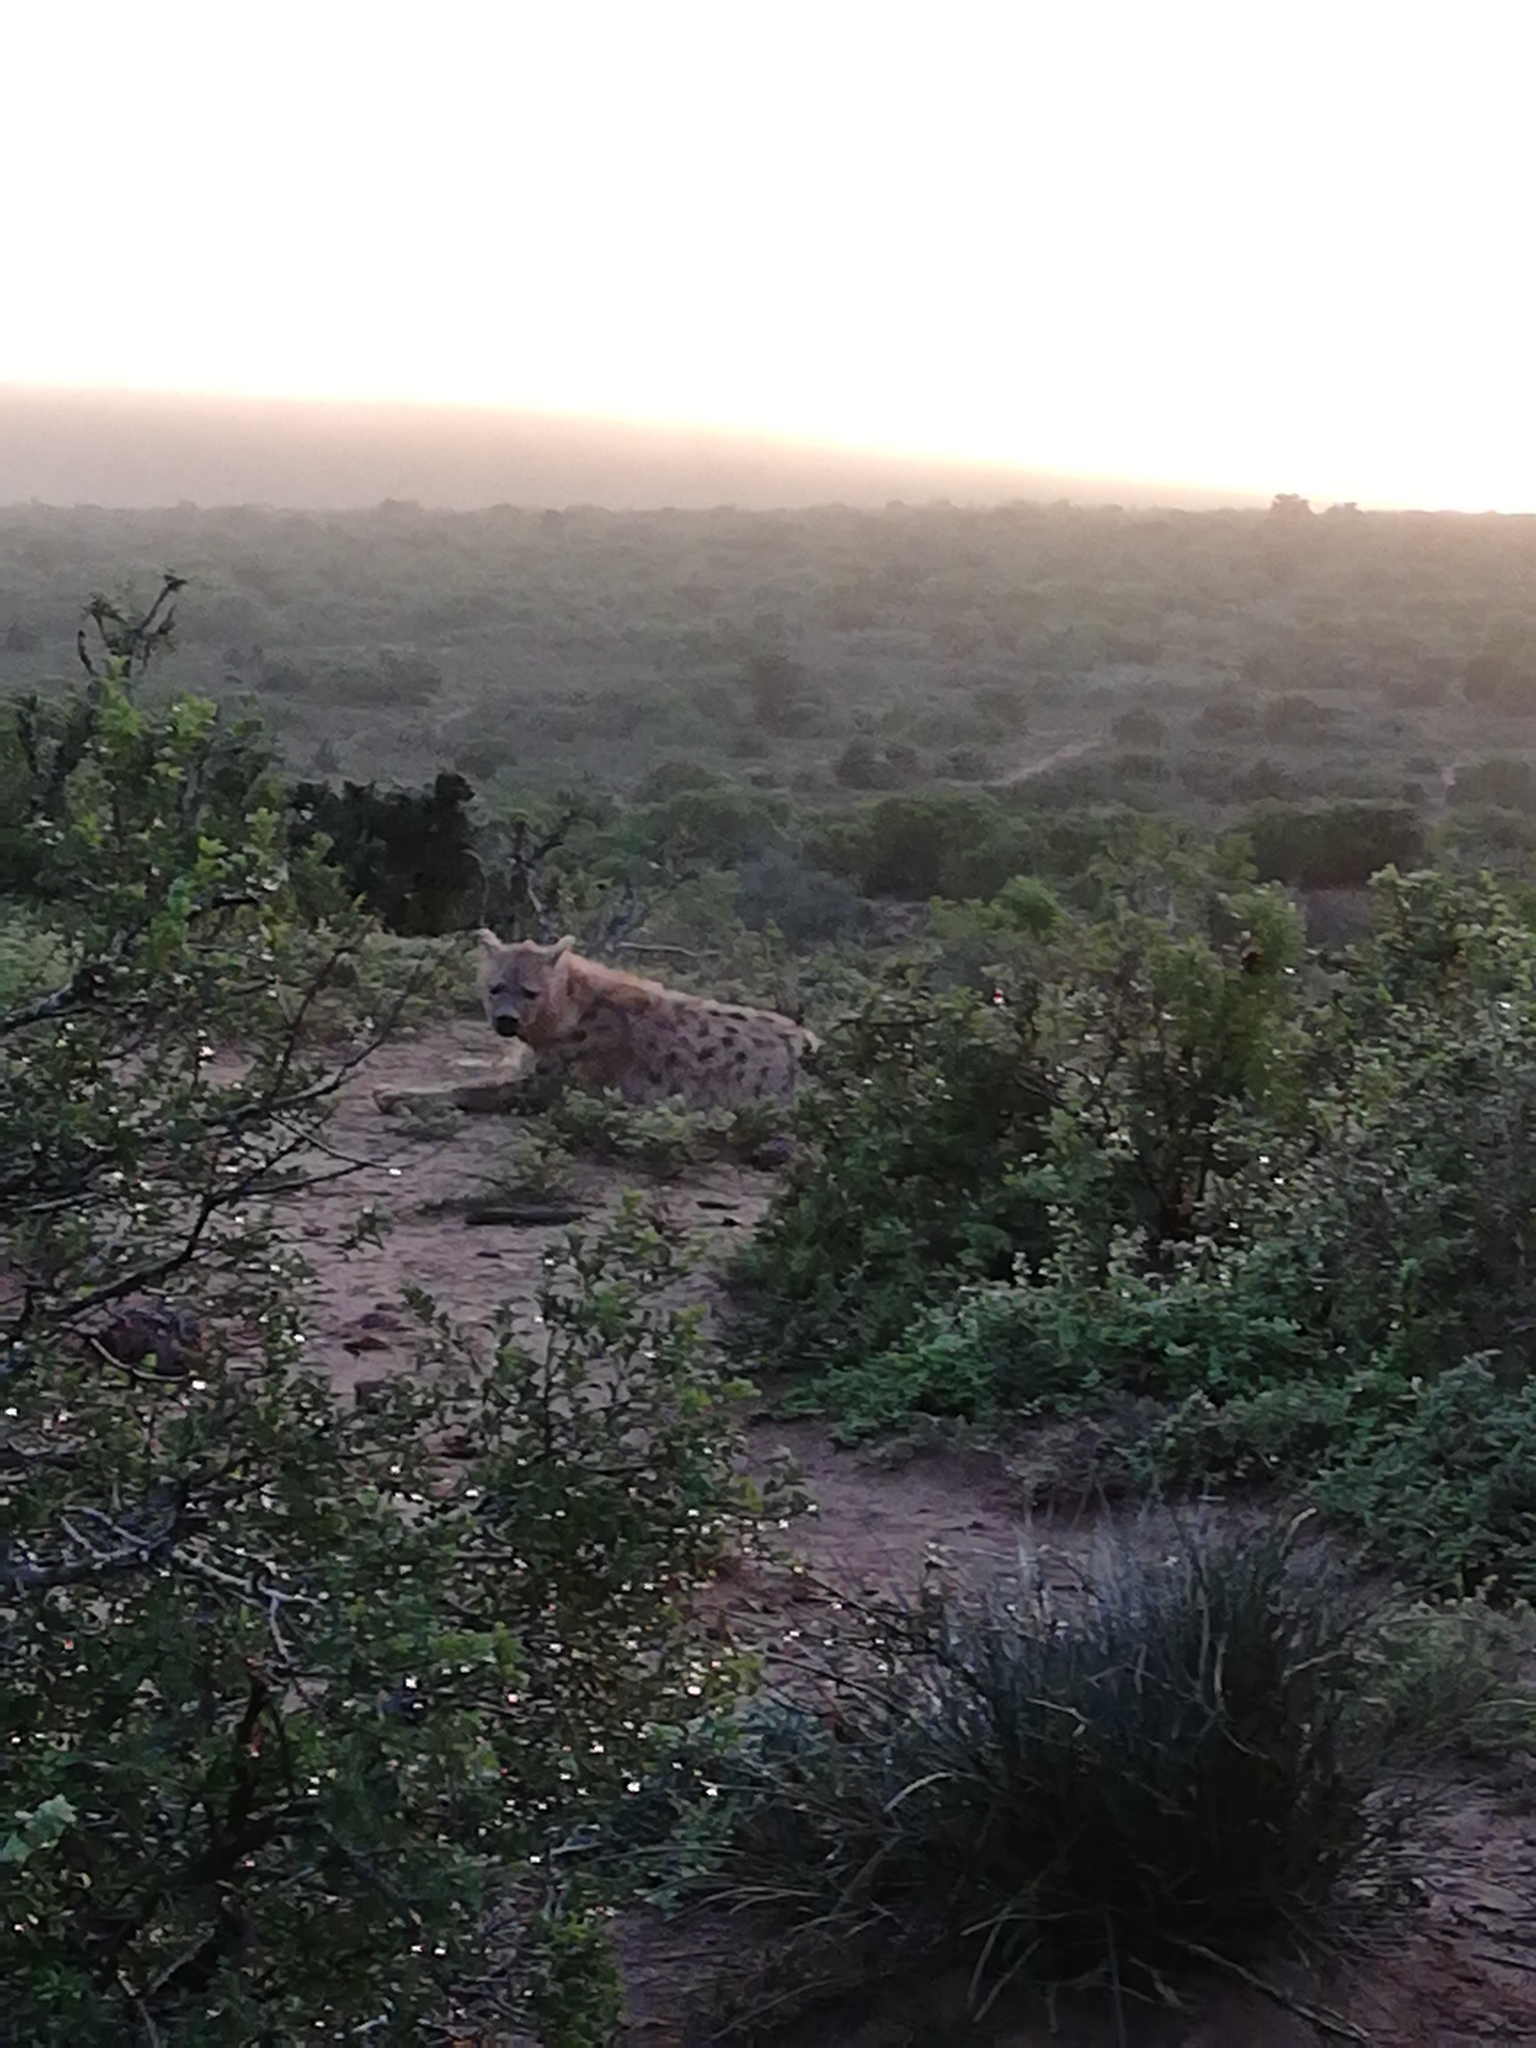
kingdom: Animalia
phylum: Chordata
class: Mammalia
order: Carnivora
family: Hyaenidae
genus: Crocuta
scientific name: Crocuta crocuta
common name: Spotted hyaena
